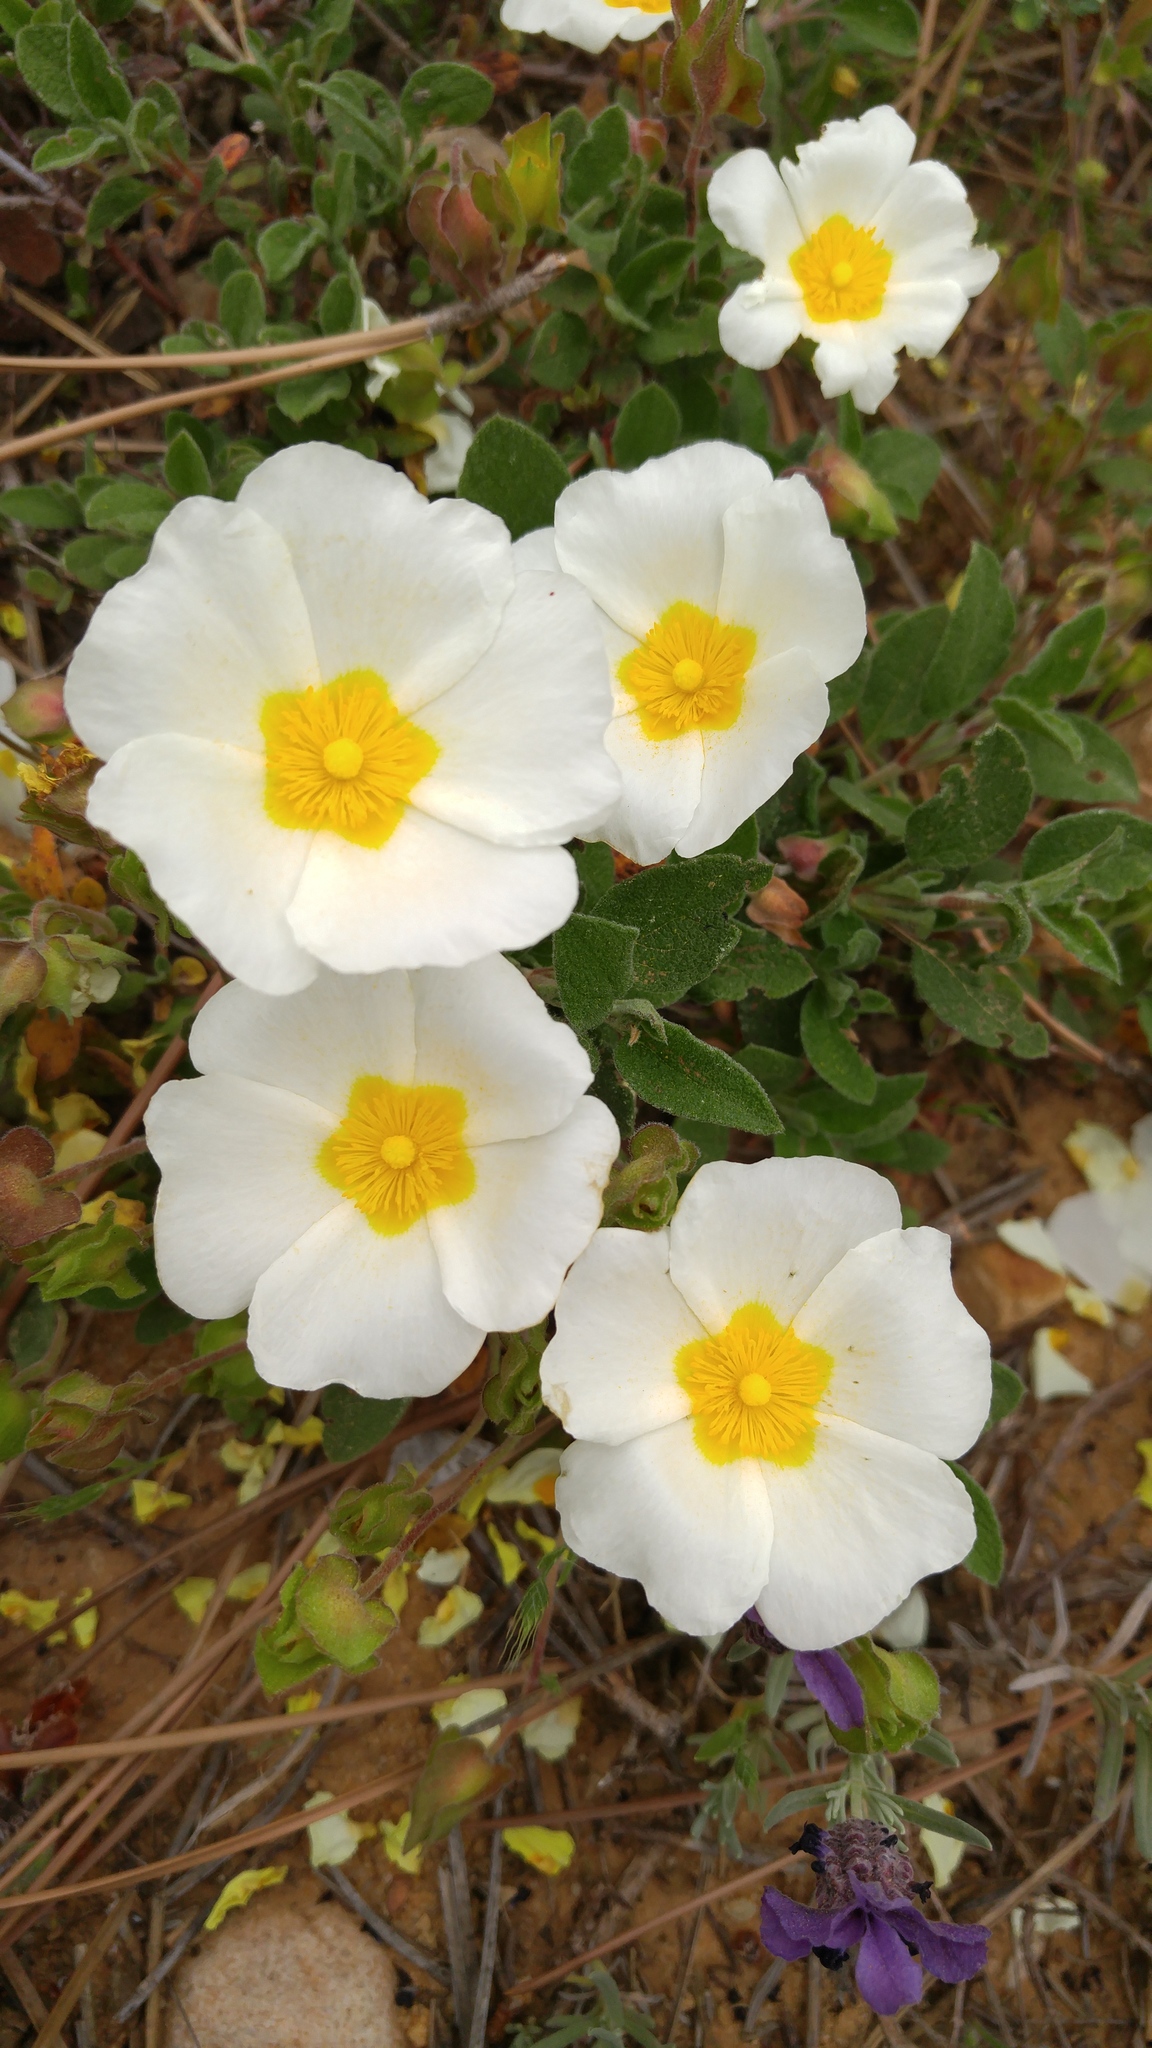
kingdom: Plantae
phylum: Tracheophyta
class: Magnoliopsida
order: Malvales
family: Cistaceae
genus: Cistus
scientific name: Cistus salviifolius
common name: Salvia cistus
